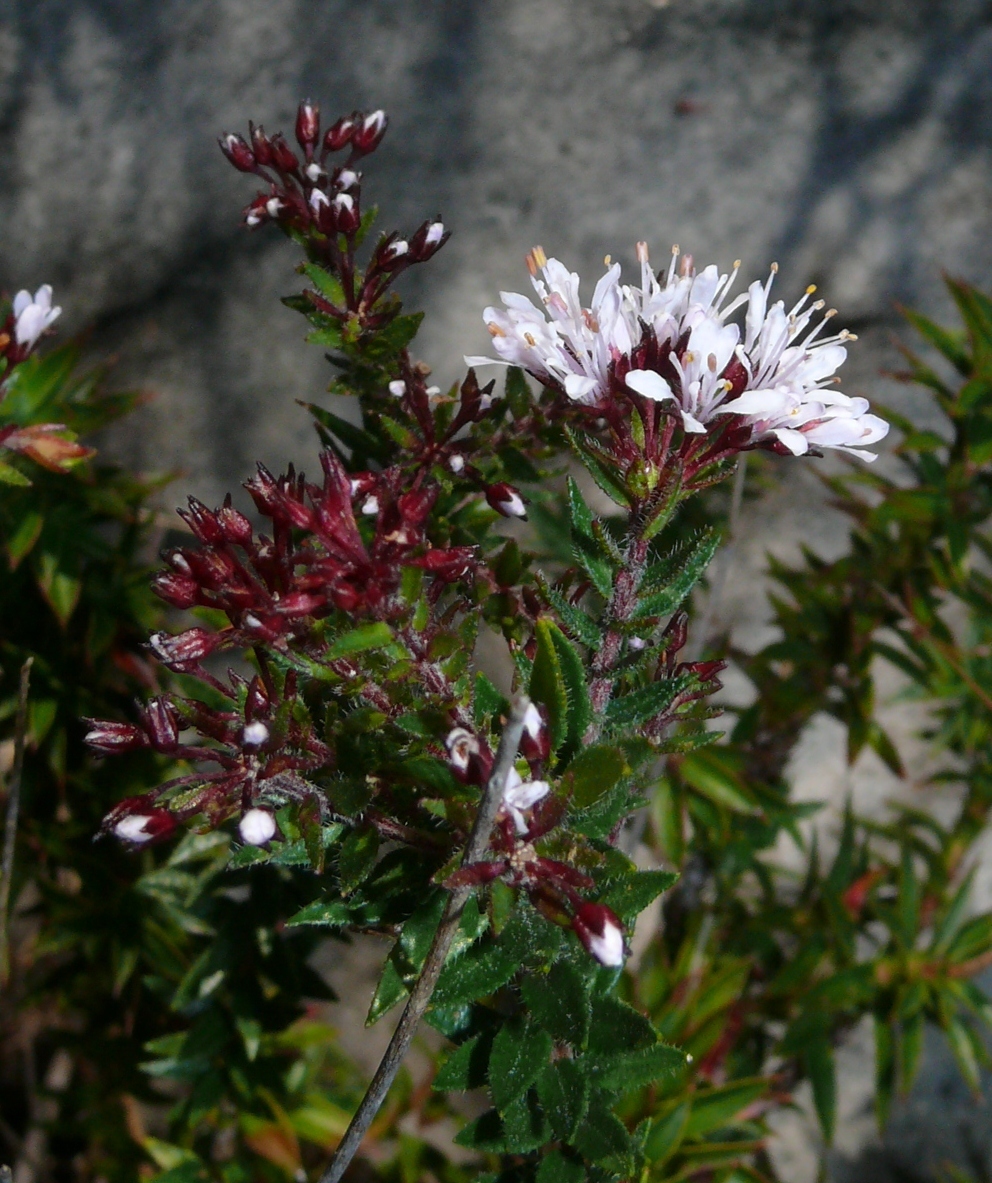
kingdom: Plantae
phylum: Tracheophyta
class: Magnoliopsida
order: Sapindales
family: Rutaceae
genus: Agathosma
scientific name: Agathosma ciliaris
